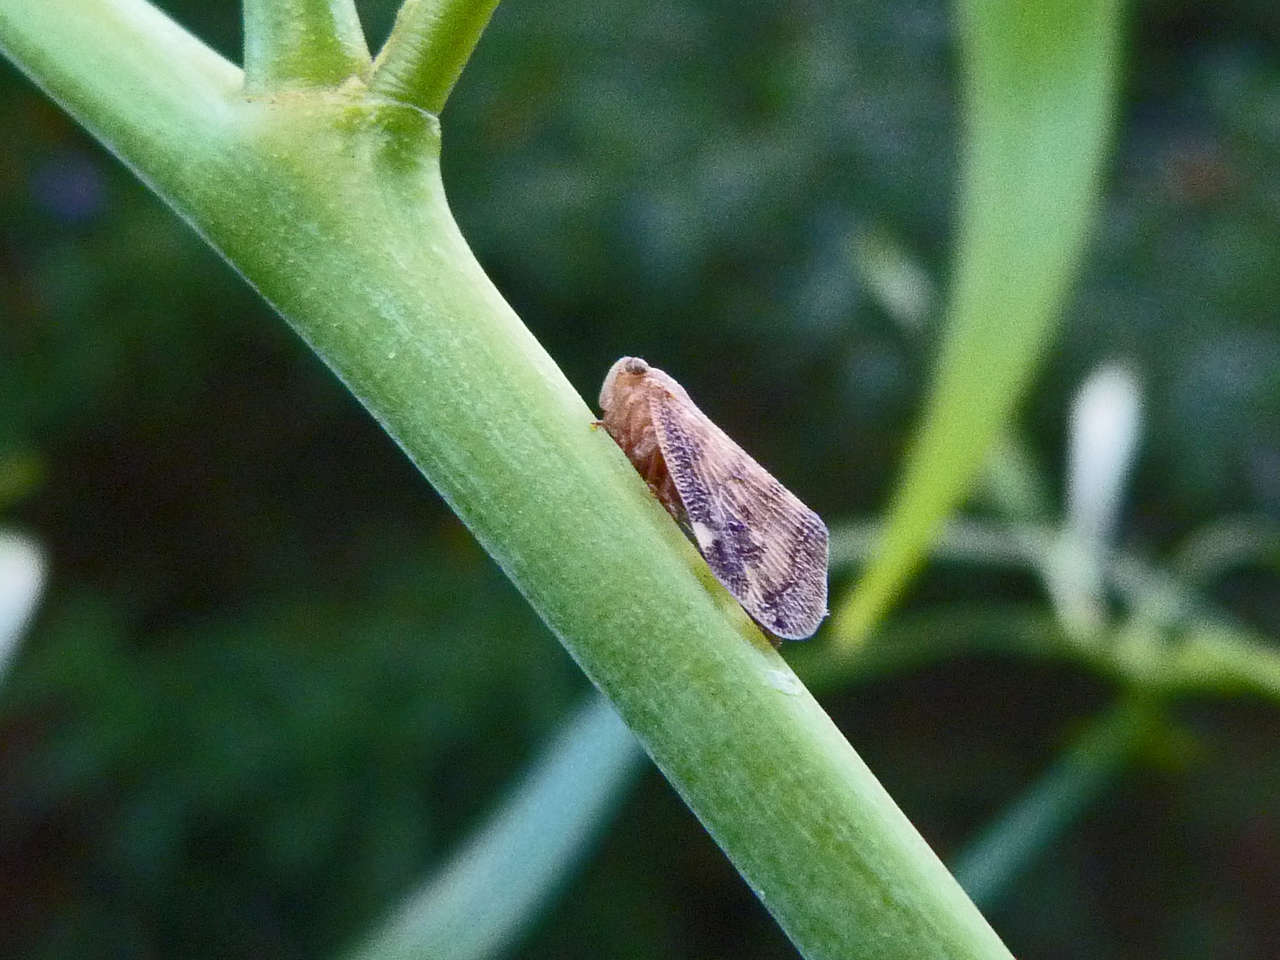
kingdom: Animalia
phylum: Arthropoda
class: Insecta
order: Hemiptera
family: Ricaniidae
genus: Scolypopa
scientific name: Scolypopa australis
